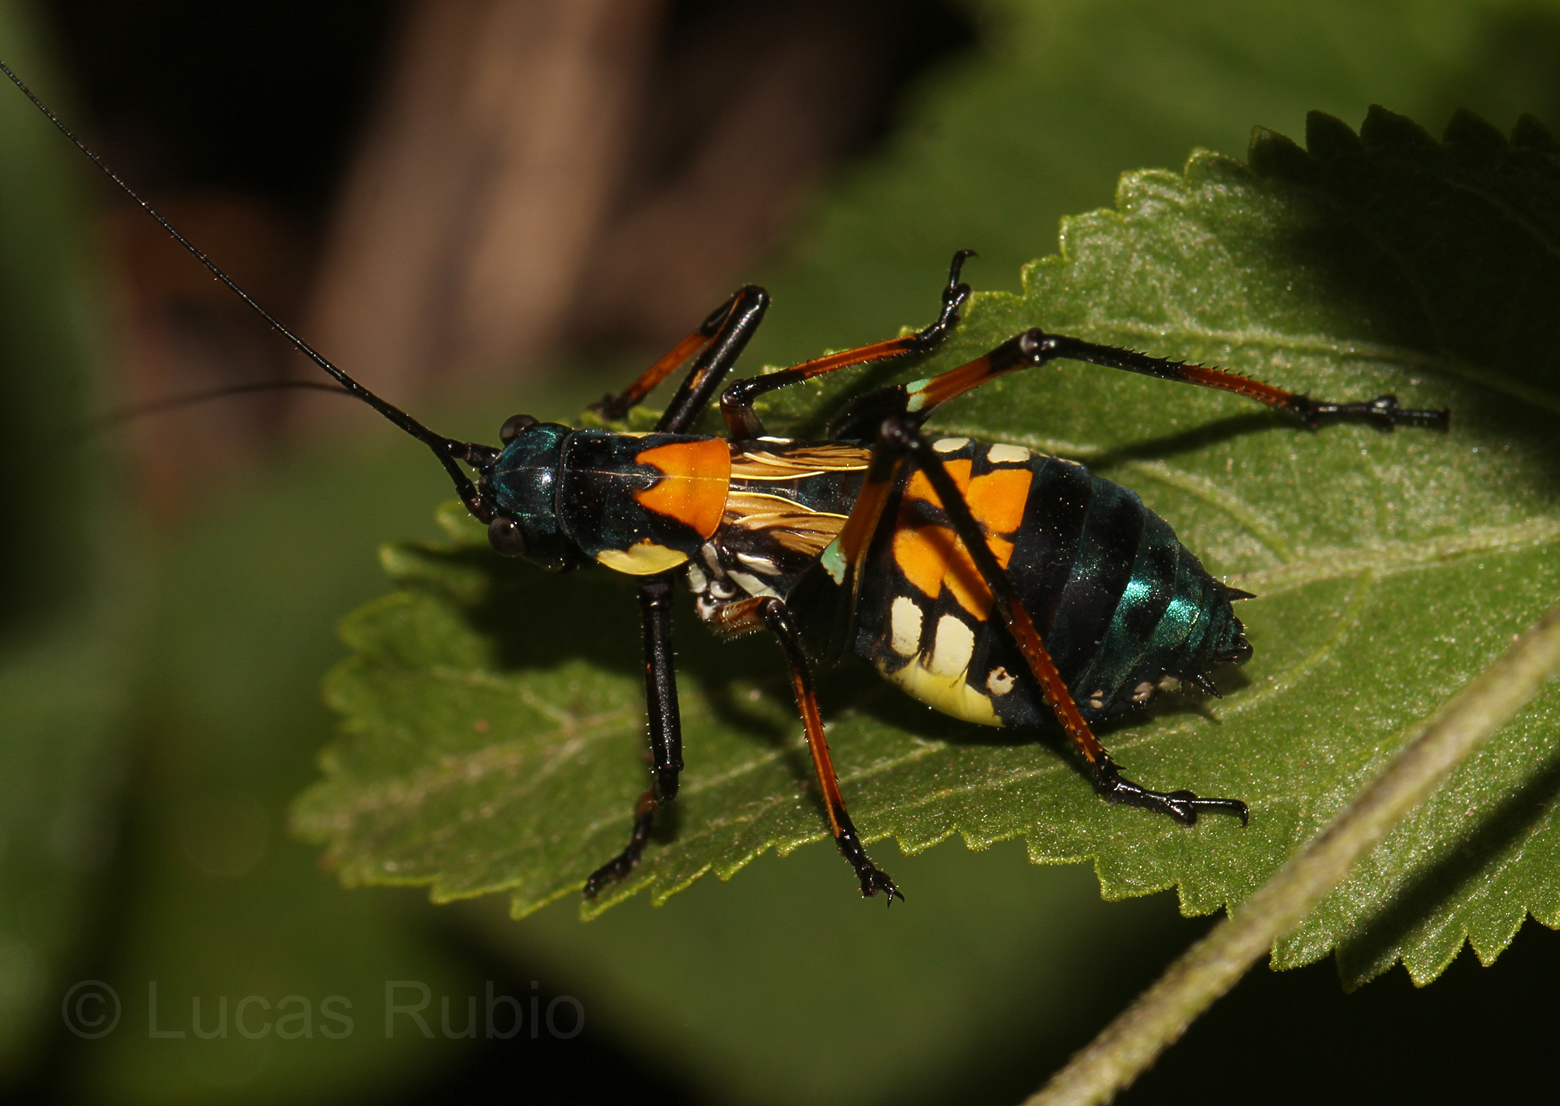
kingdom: Animalia
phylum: Arthropoda
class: Insecta
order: Orthoptera
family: Tettigoniidae
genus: Scaphura
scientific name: Scaphura elegans
